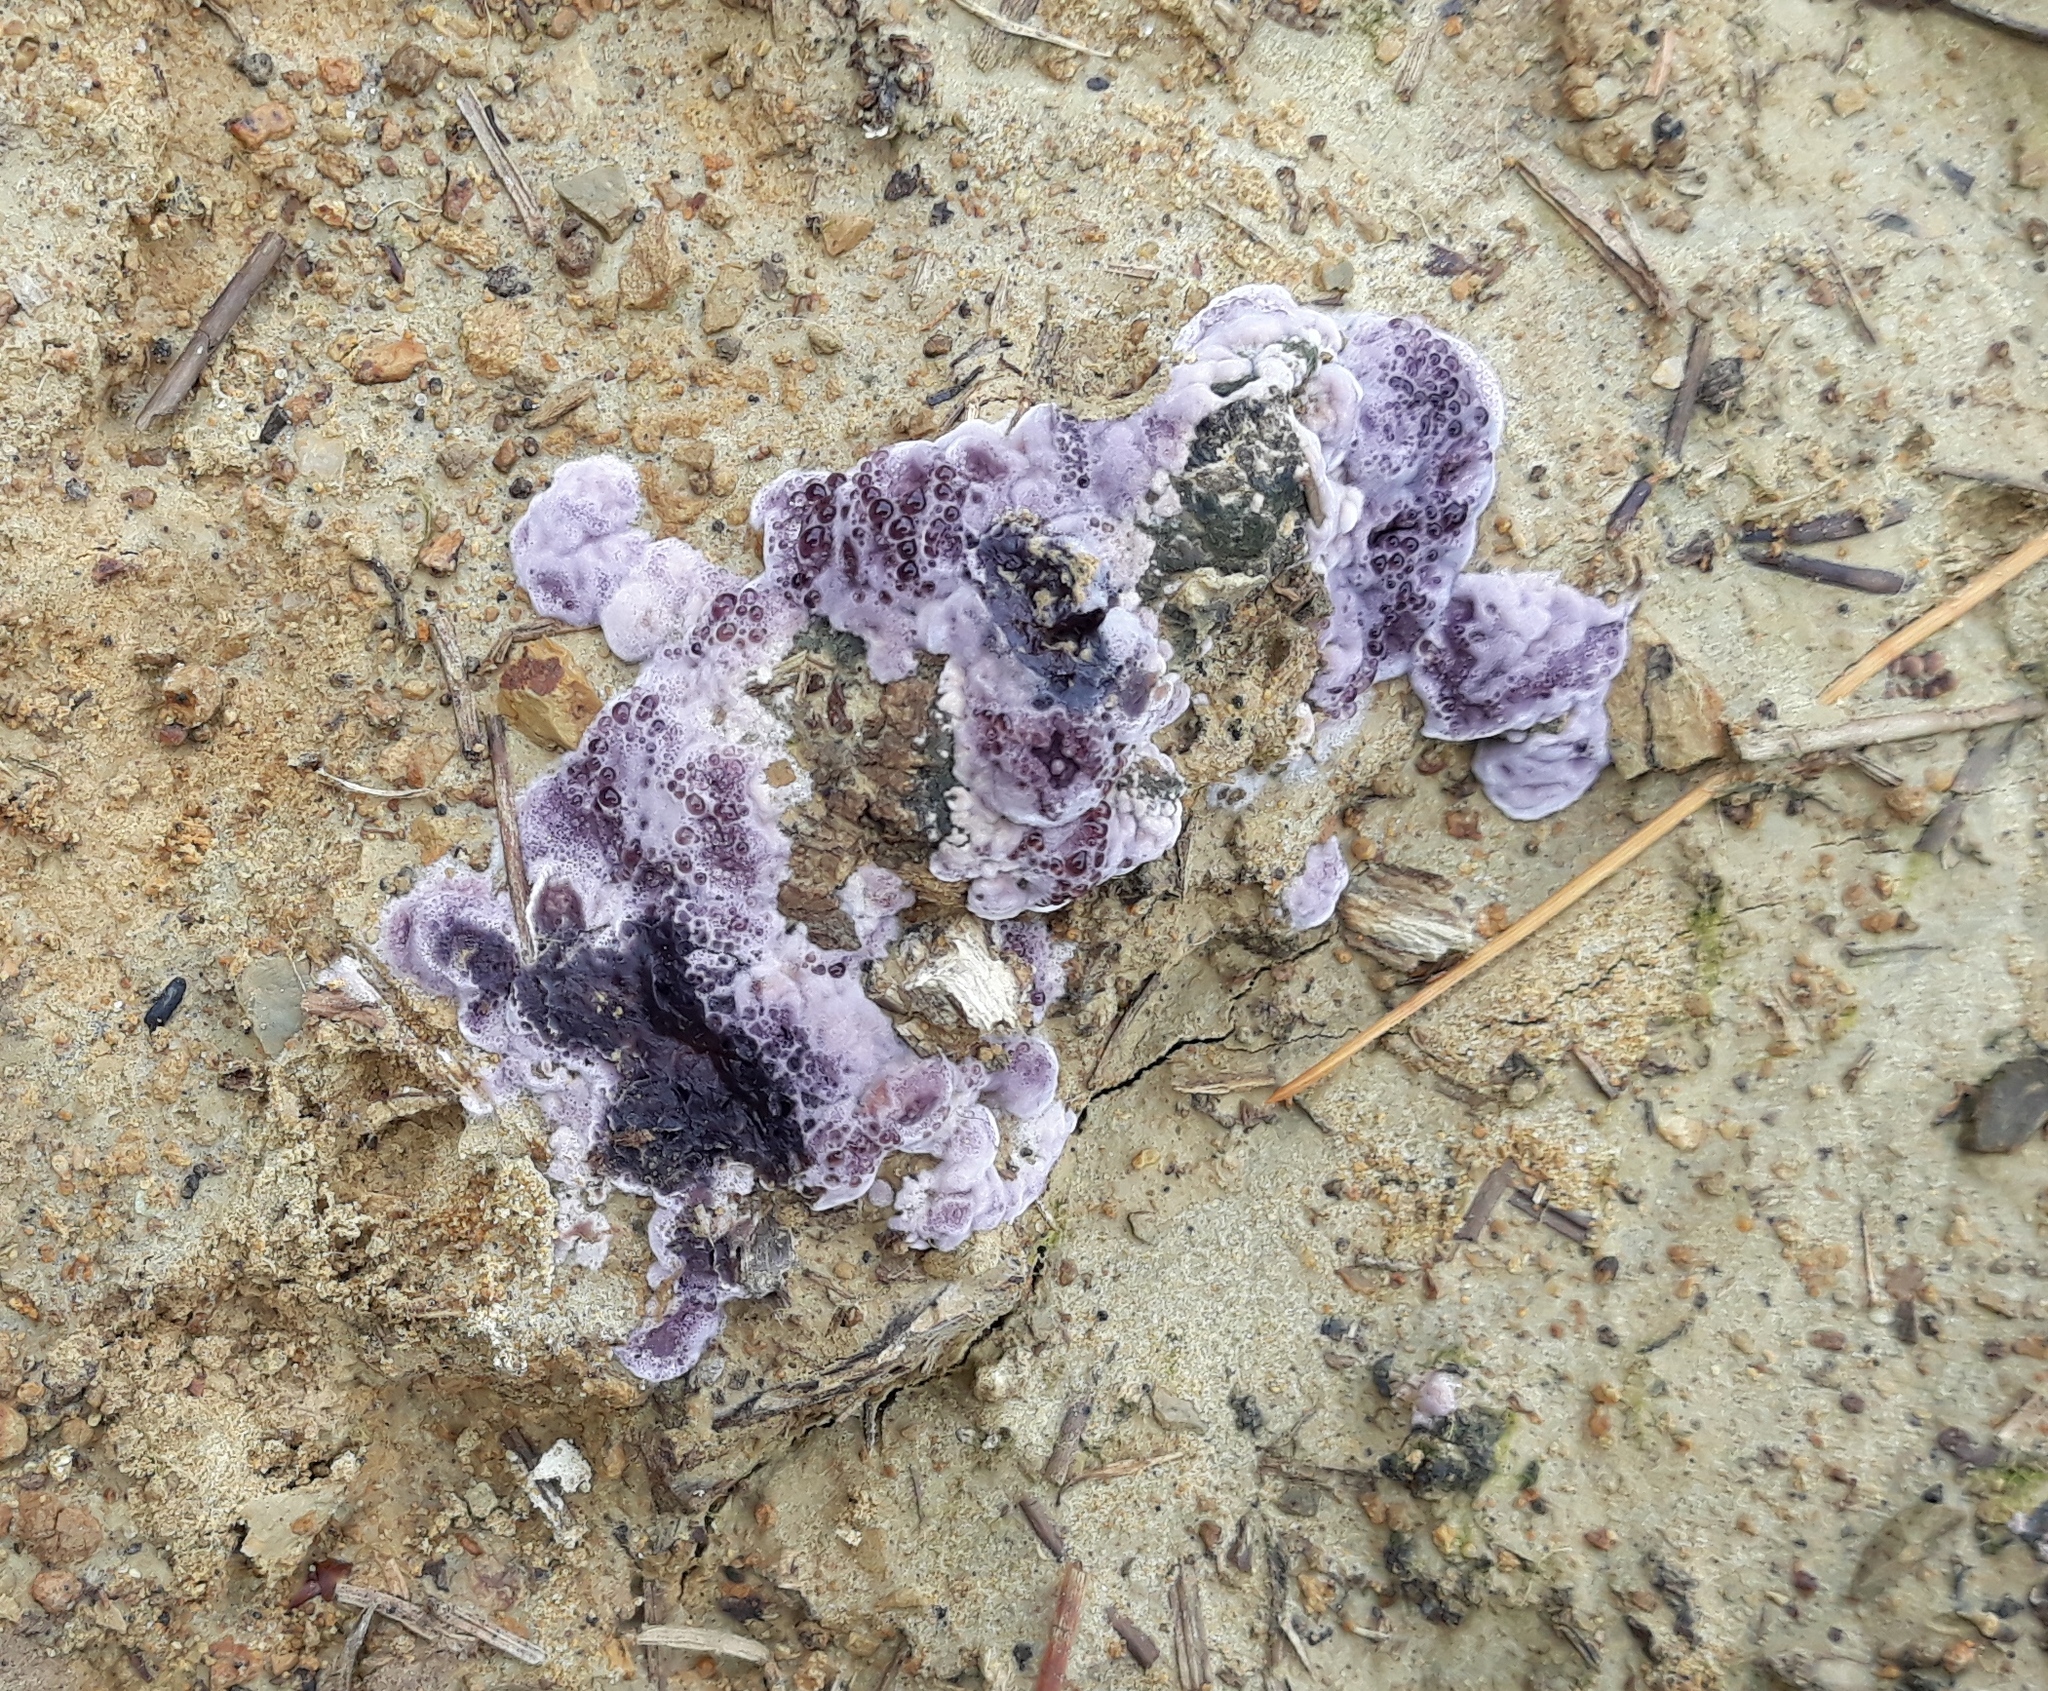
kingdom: Fungi
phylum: Basidiomycota
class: Agaricomycetes
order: Agaricales
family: Cyphellaceae
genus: Chondrostereum
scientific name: Chondrostereum purpureum
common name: Silver leaf disease
